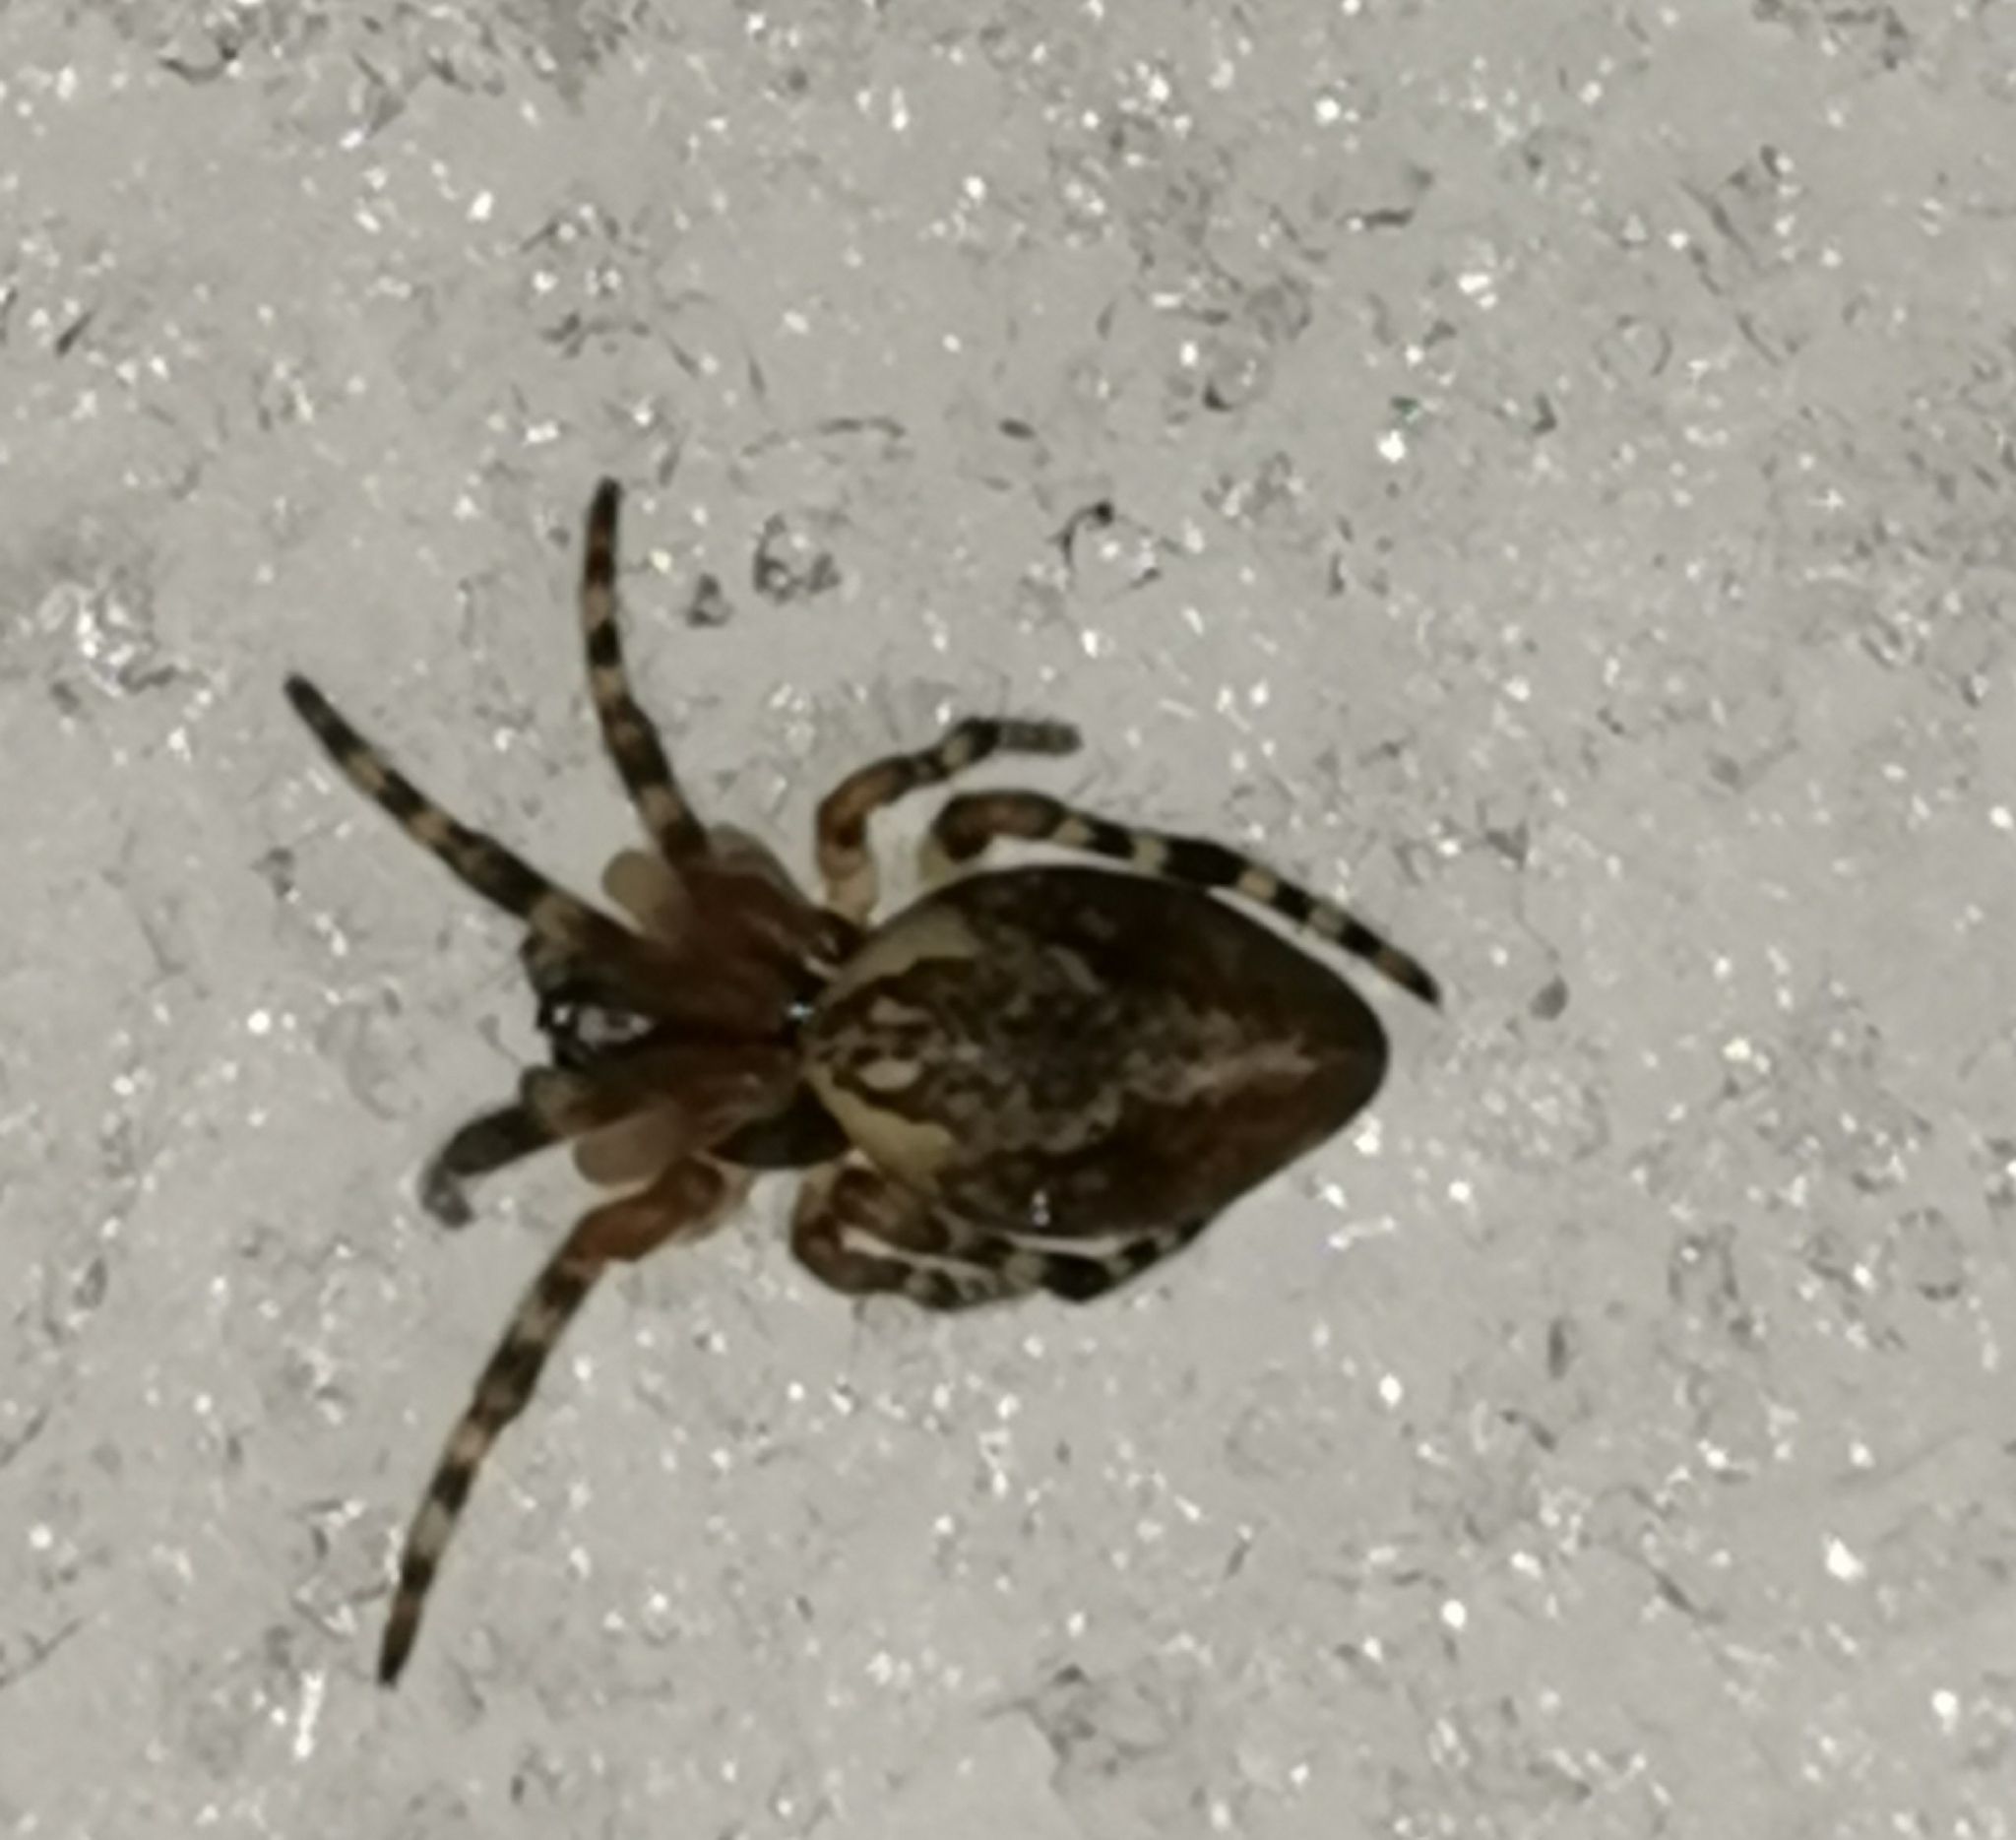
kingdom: Animalia
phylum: Arthropoda
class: Arachnida
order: Araneae
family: Araneidae
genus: Cyclosa
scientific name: Cyclosa conica
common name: Conical trashline orbweaver
